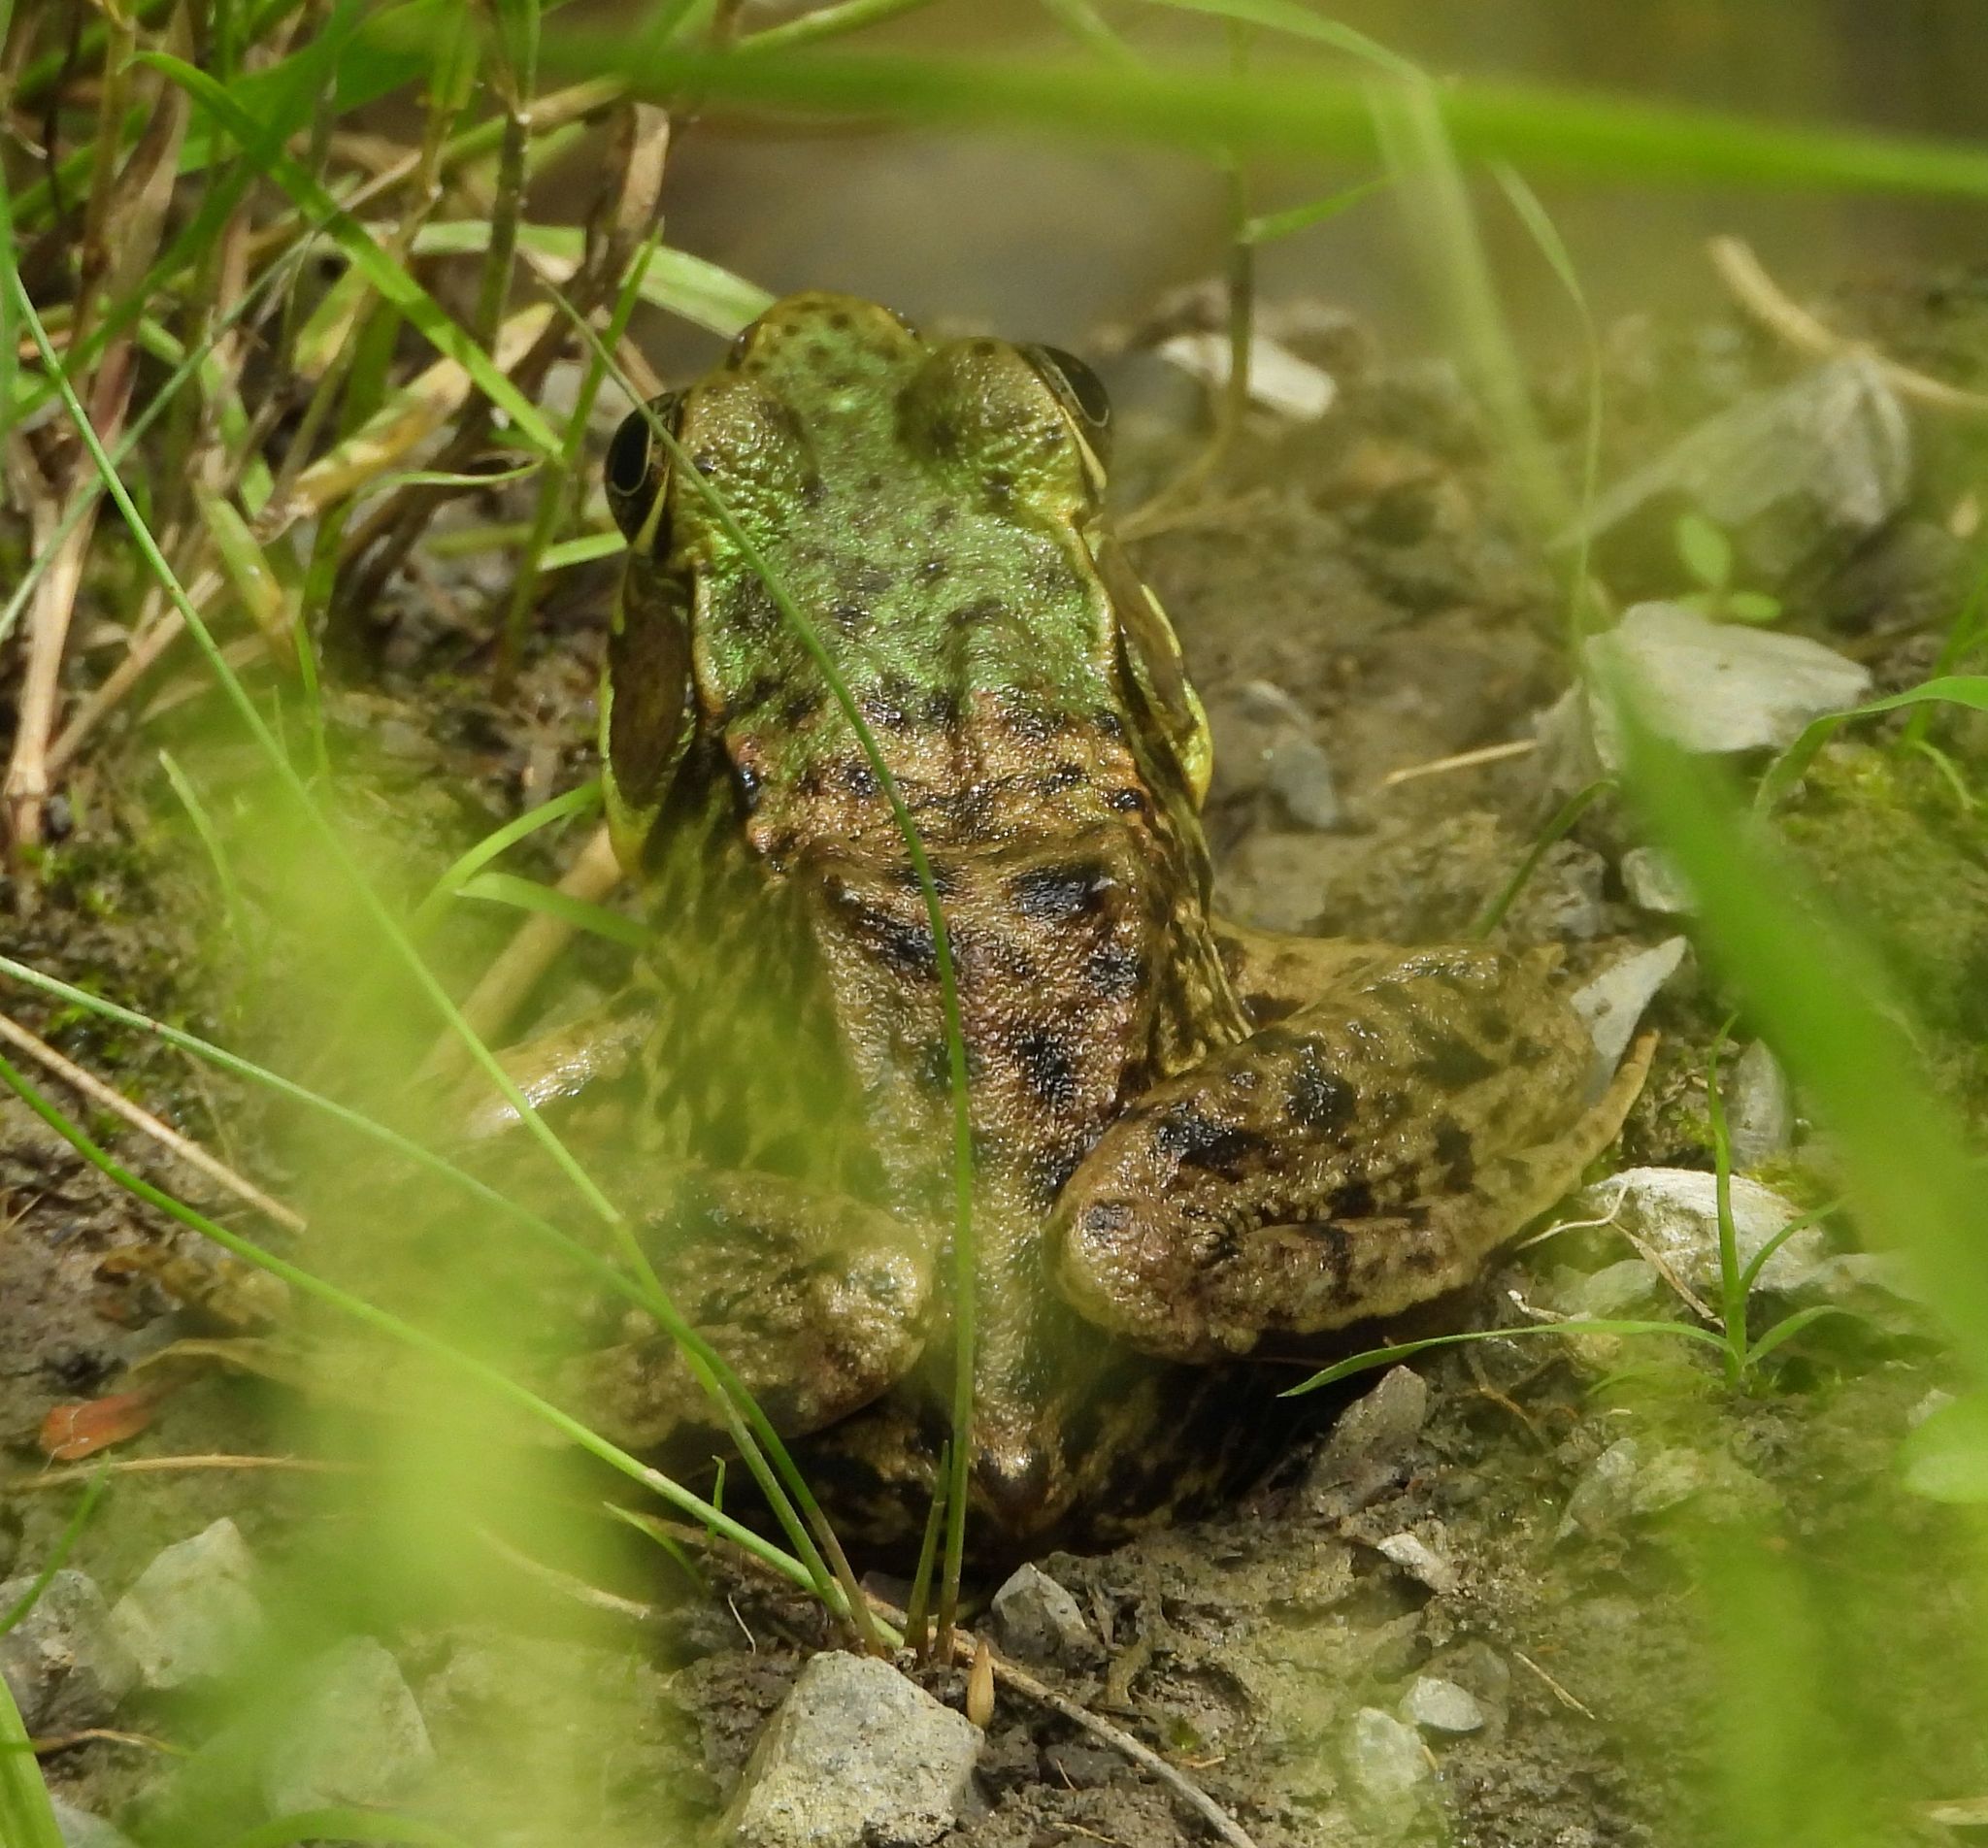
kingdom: Animalia
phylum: Chordata
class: Amphibia
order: Anura
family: Ranidae
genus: Lithobates
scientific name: Lithobates clamitans
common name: Green frog
